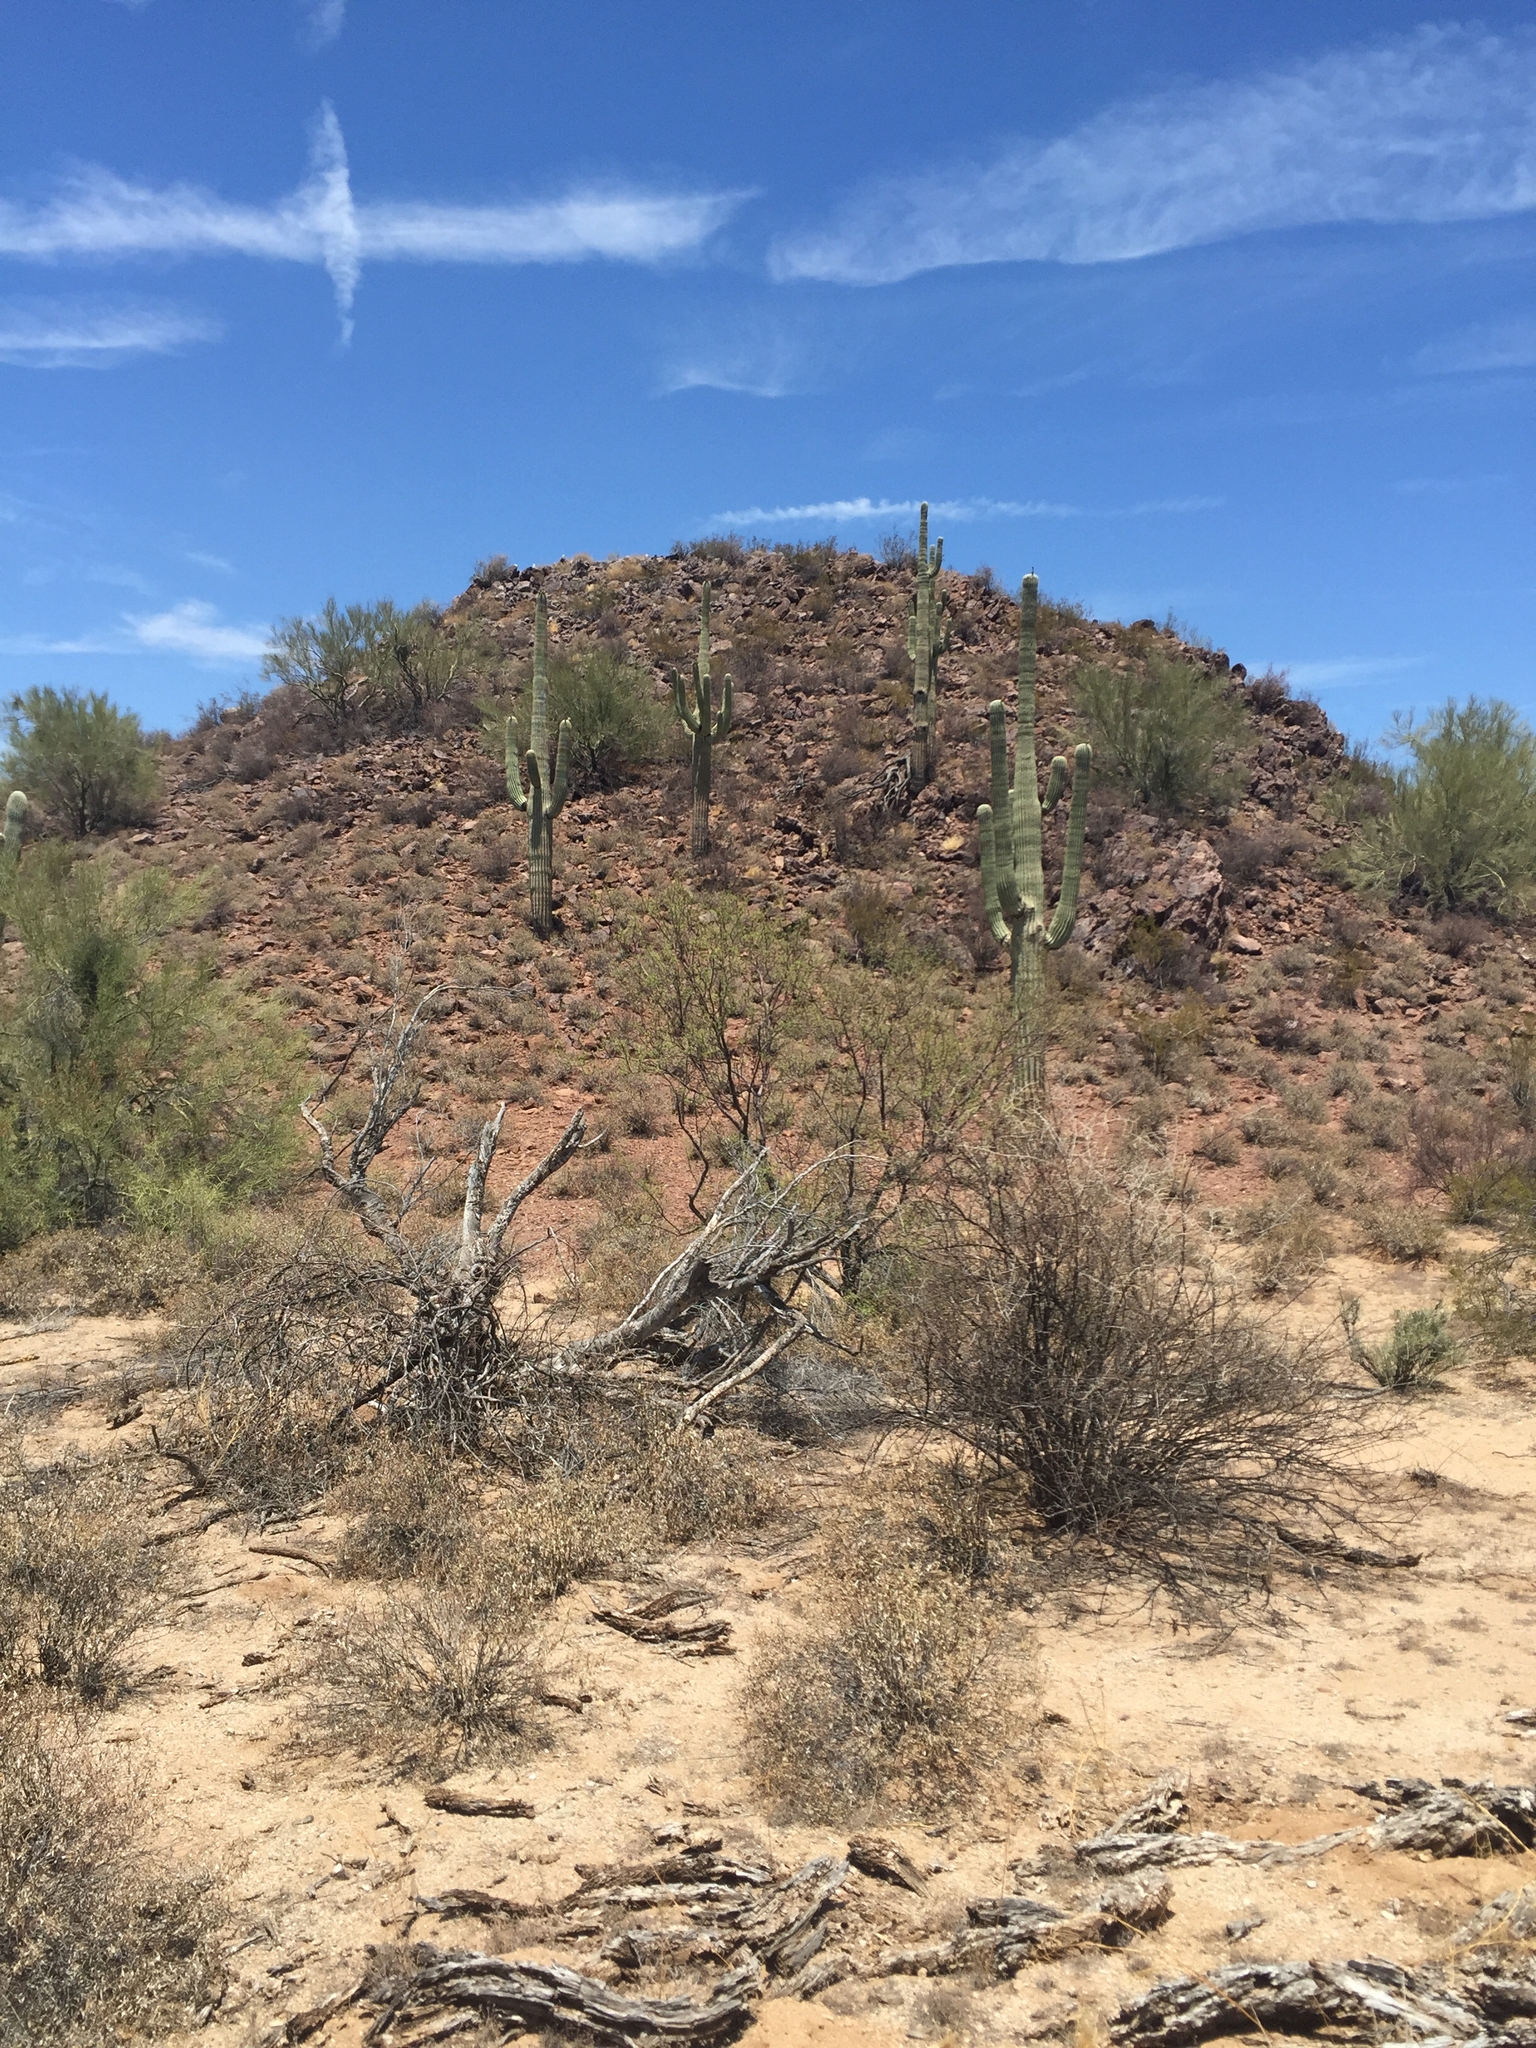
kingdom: Plantae
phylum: Tracheophyta
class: Magnoliopsida
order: Caryophyllales
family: Cactaceae
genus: Carnegiea
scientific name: Carnegiea gigantea
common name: Saguaro
